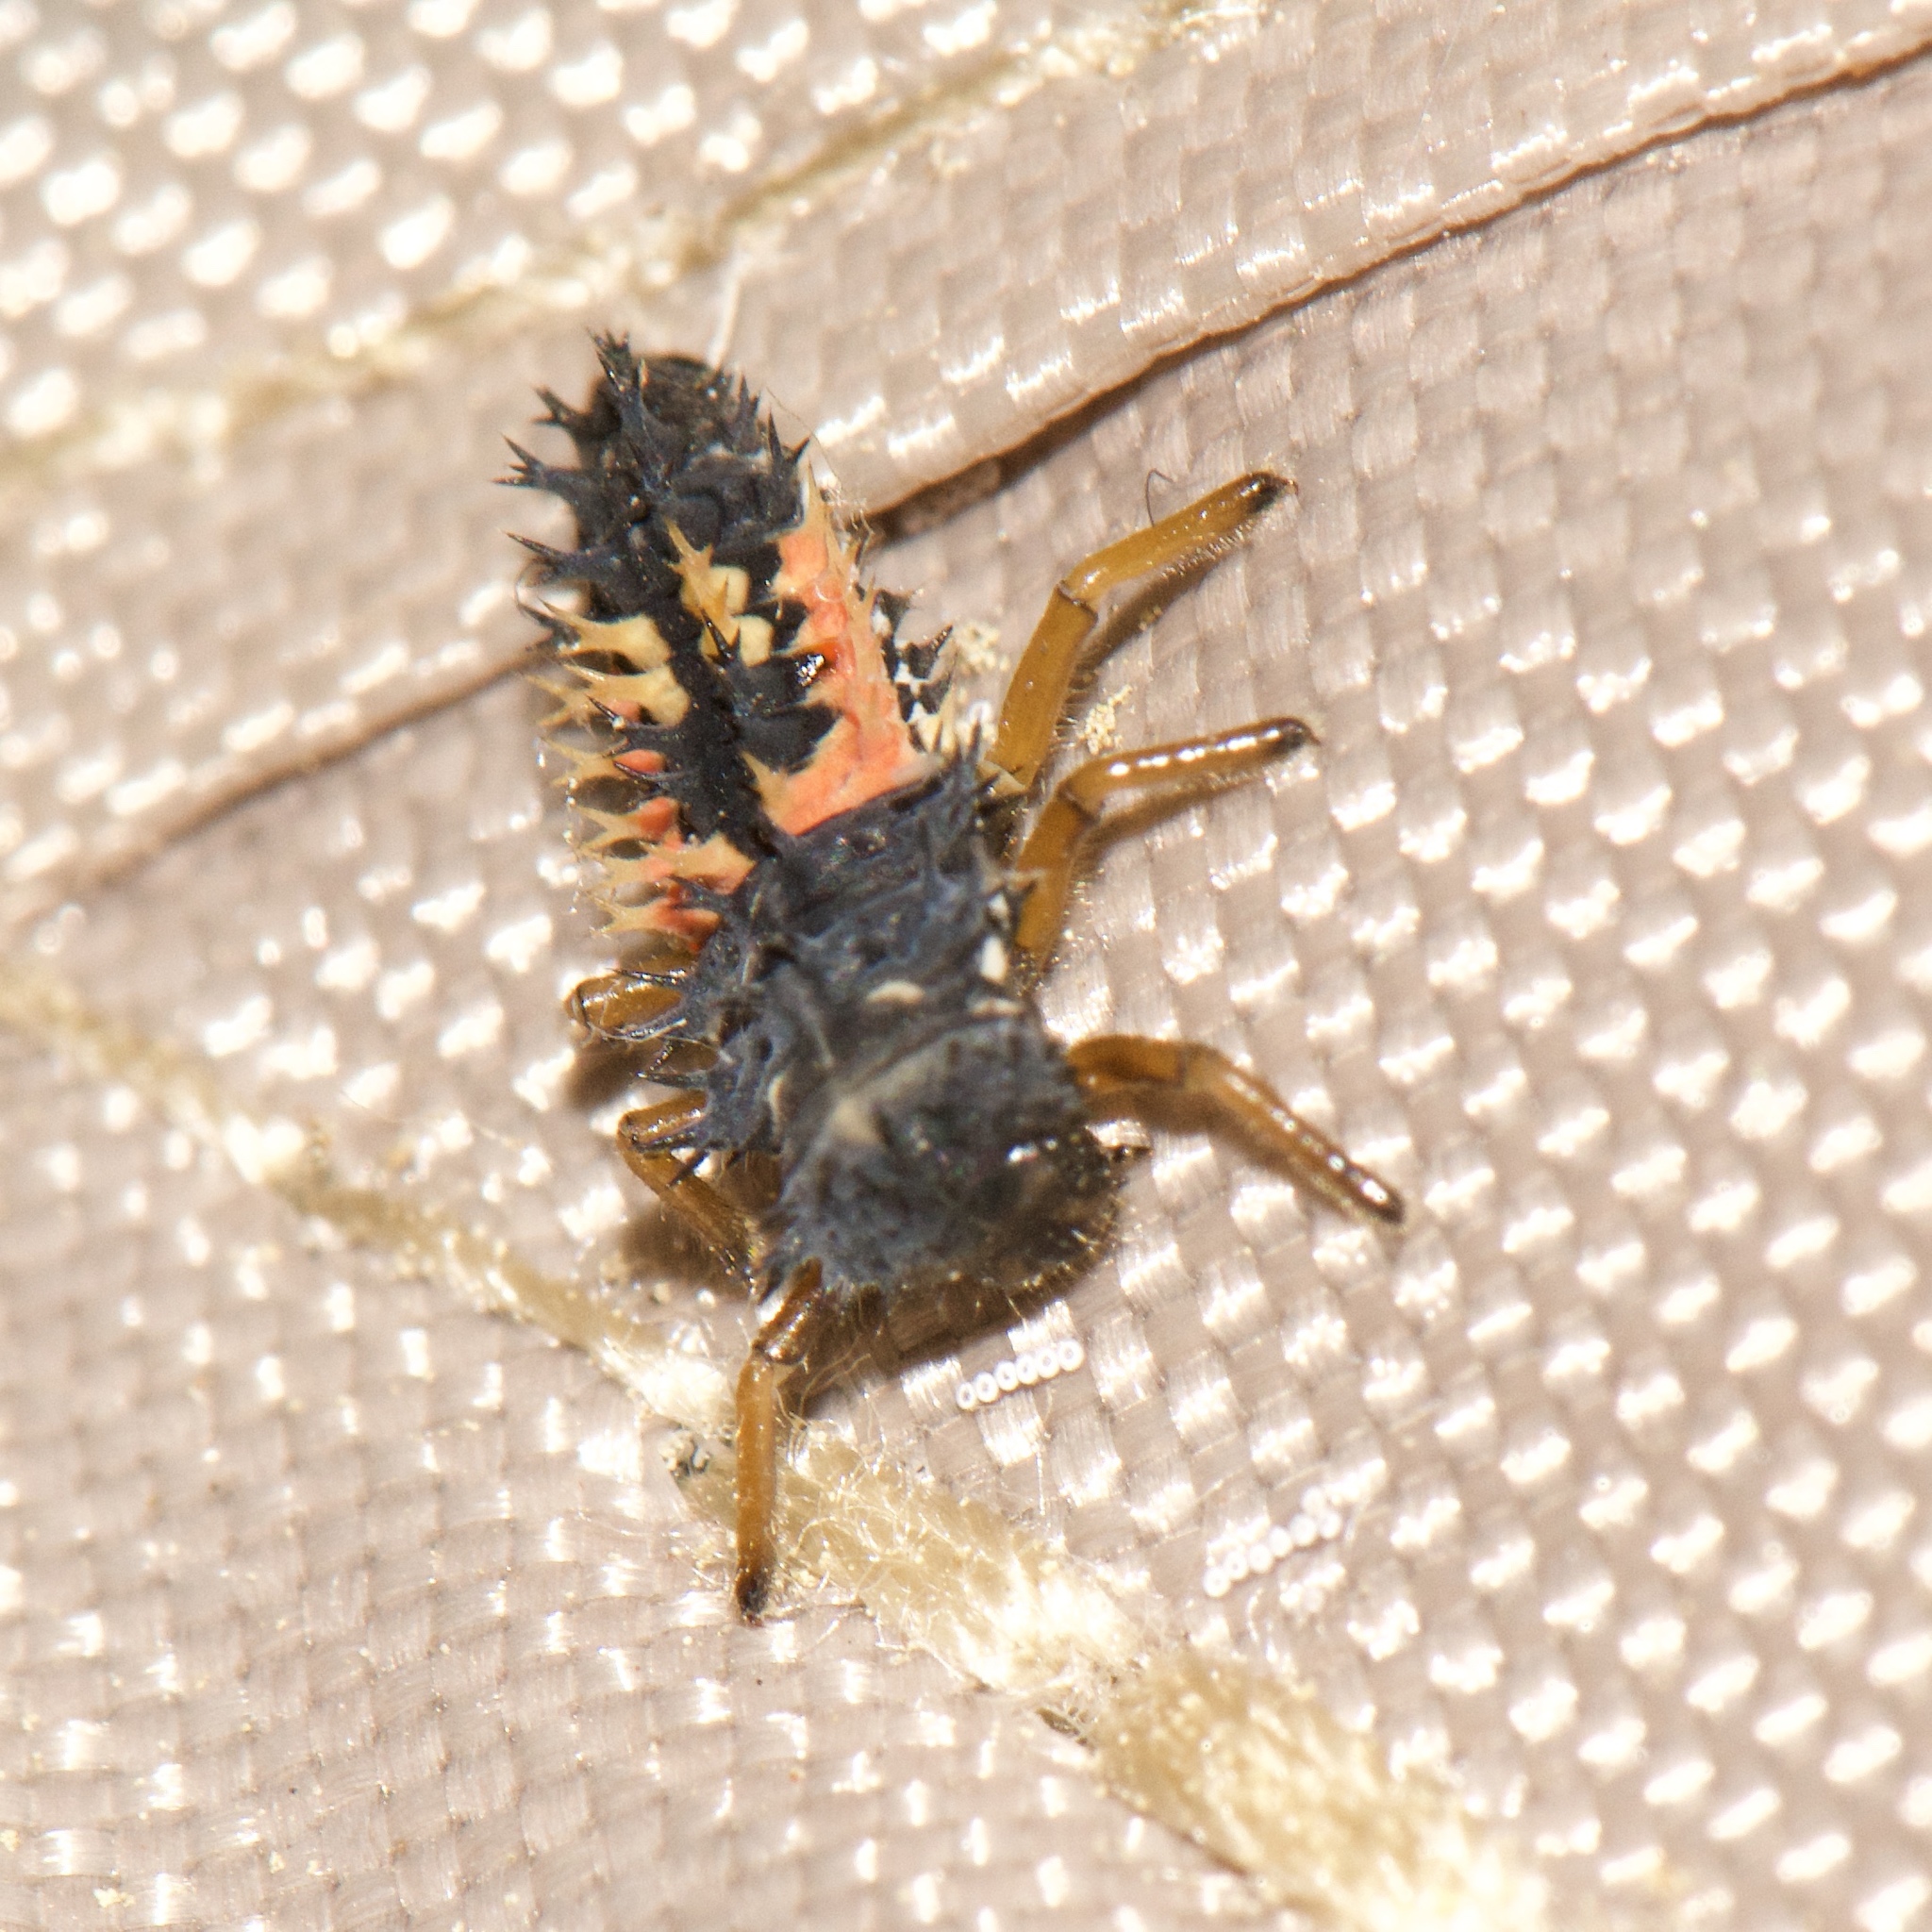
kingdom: Animalia
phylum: Arthropoda
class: Insecta
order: Coleoptera
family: Coccinellidae
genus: Harmonia
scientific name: Harmonia axyridis
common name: Harlequin ladybird
